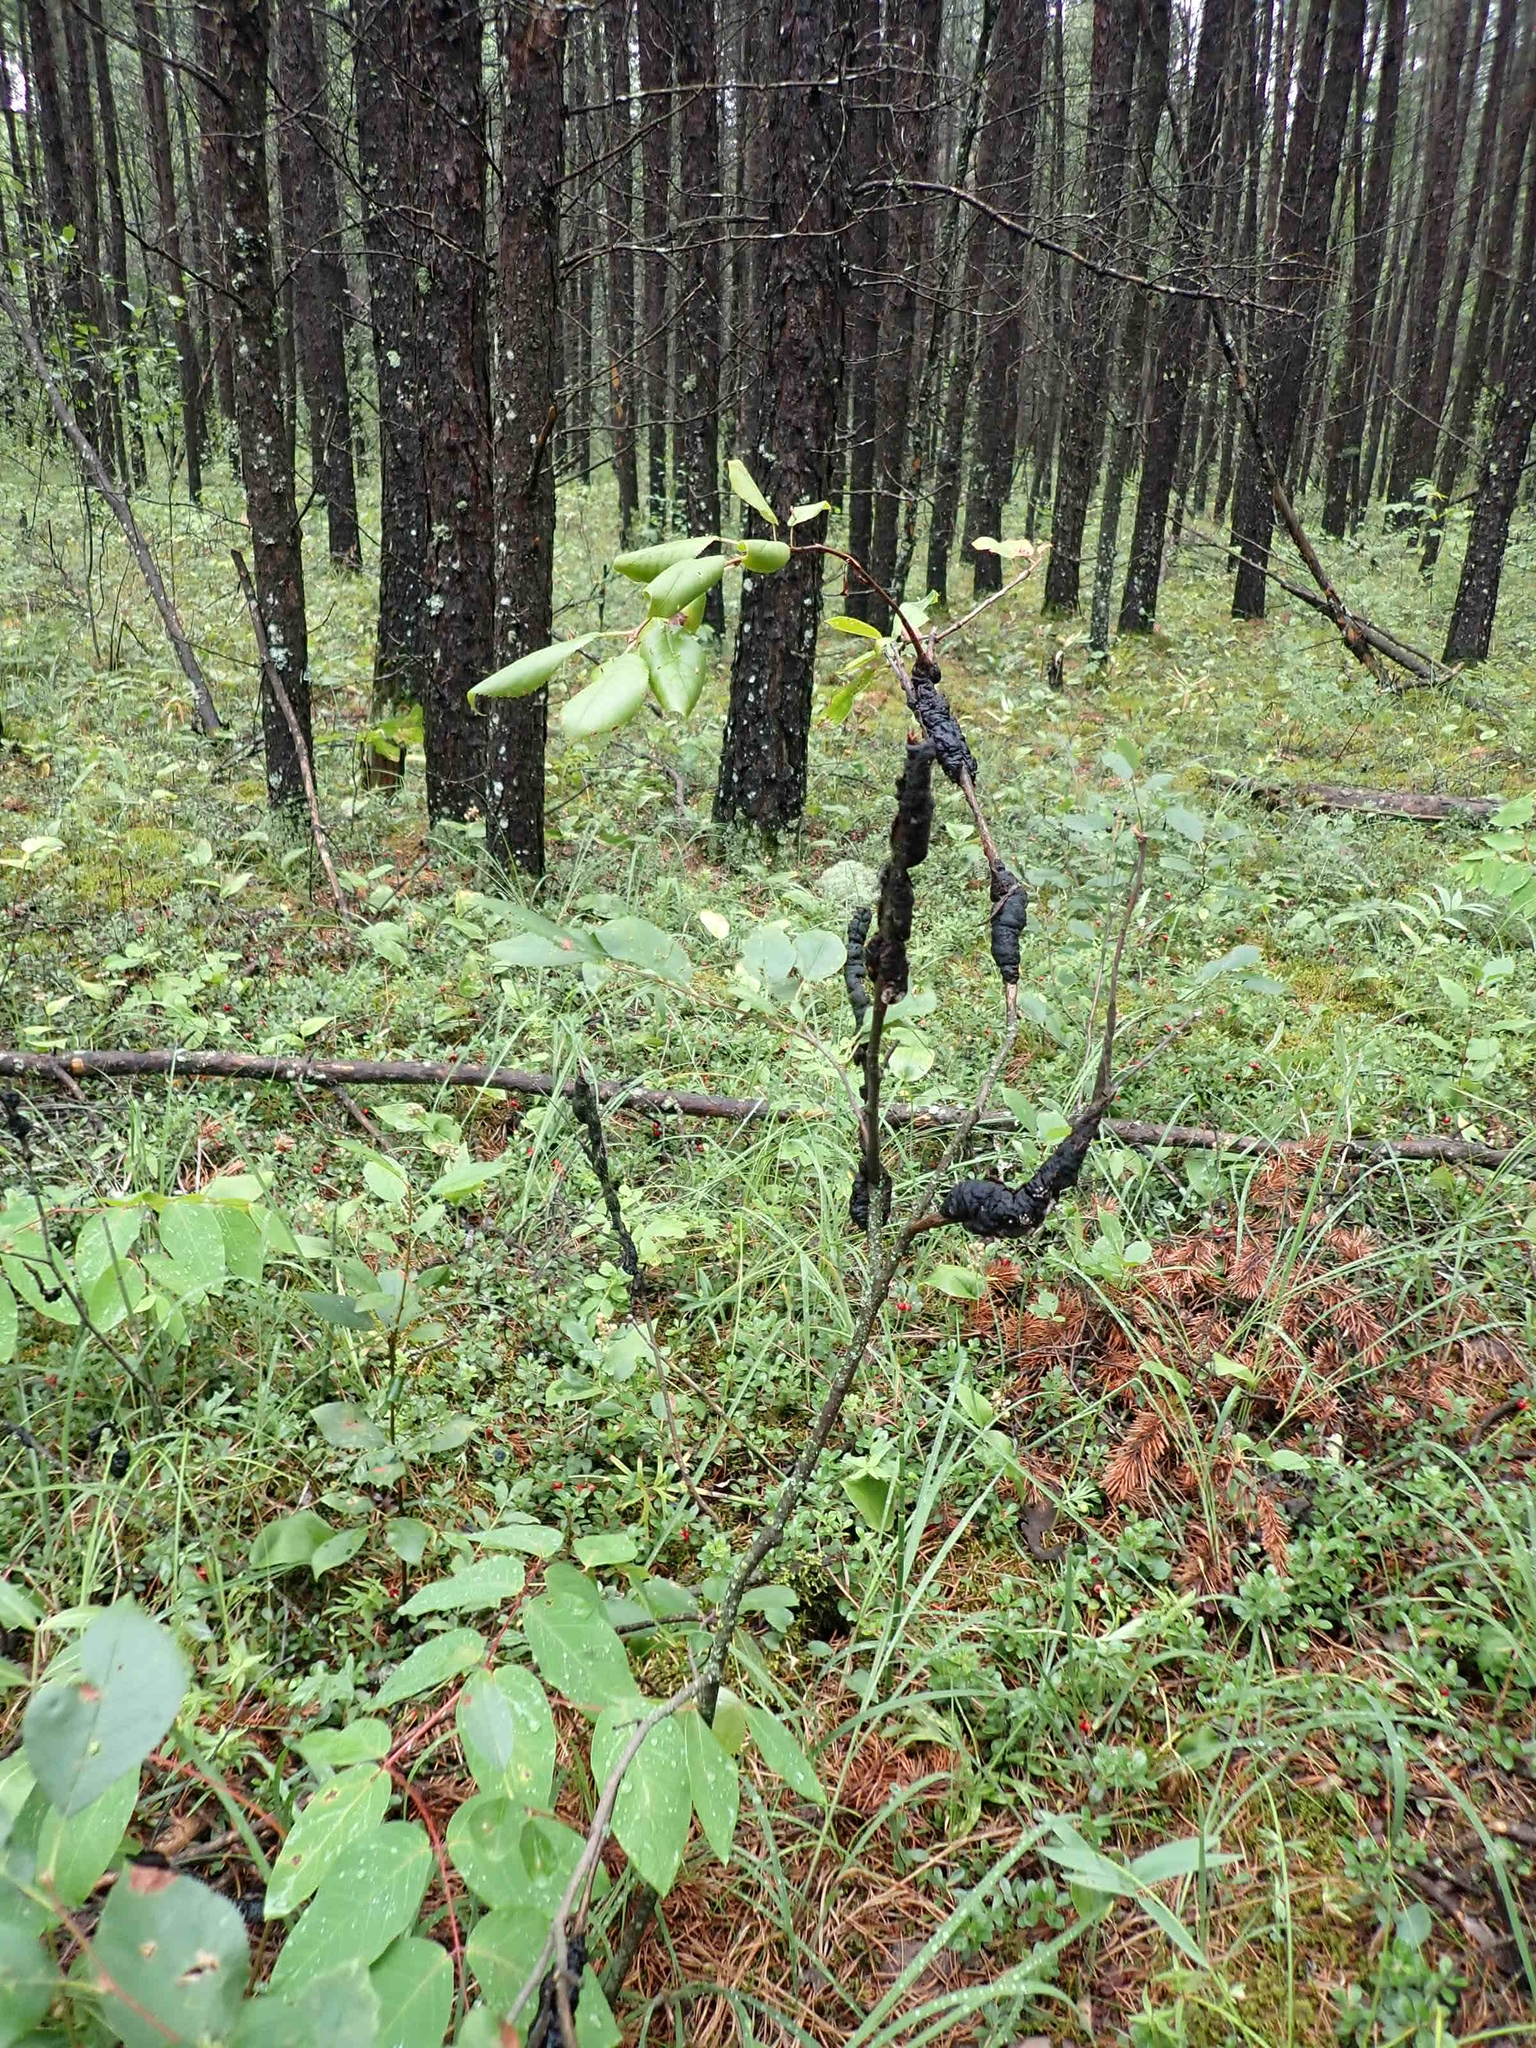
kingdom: Fungi
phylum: Ascomycota
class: Dothideomycetes
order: Venturiales
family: Venturiaceae
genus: Apiosporina
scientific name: Apiosporina morbosa
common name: Black knot
